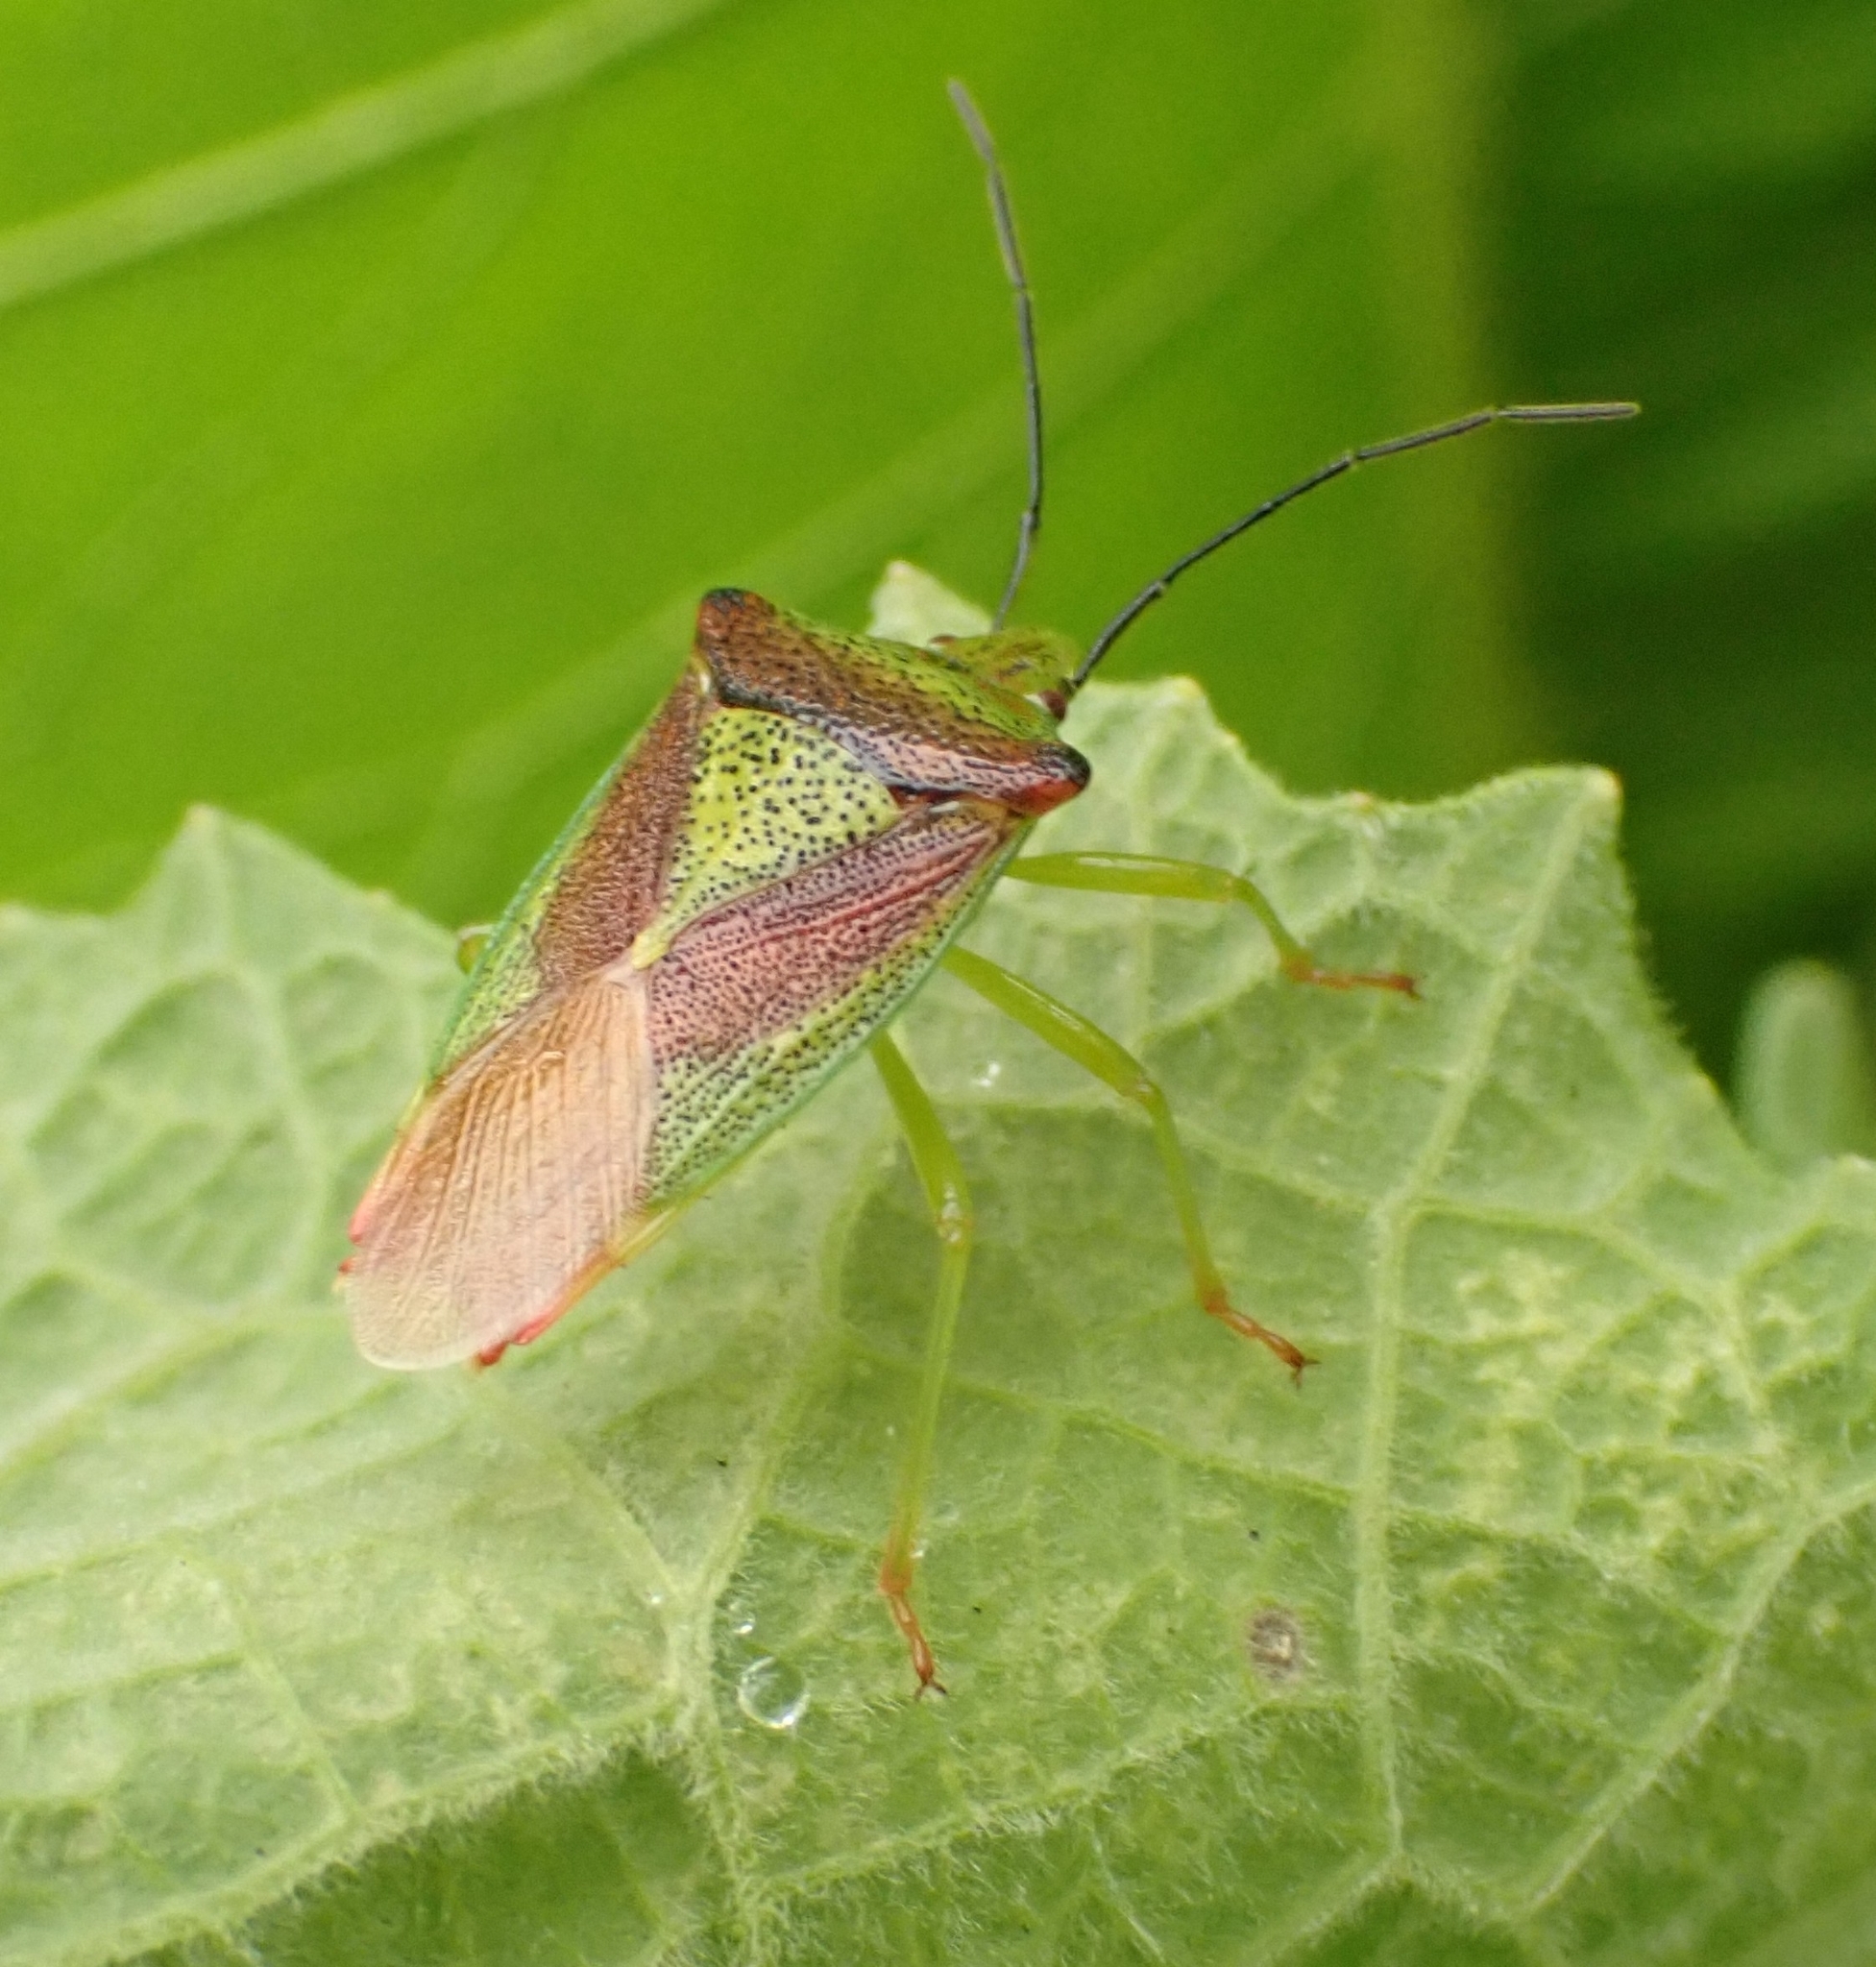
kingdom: Animalia
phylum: Arthropoda
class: Insecta
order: Hemiptera
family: Acanthosomatidae
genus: Acanthosoma
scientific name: Acanthosoma haemorrhoidale
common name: Hawthorn shieldbug
